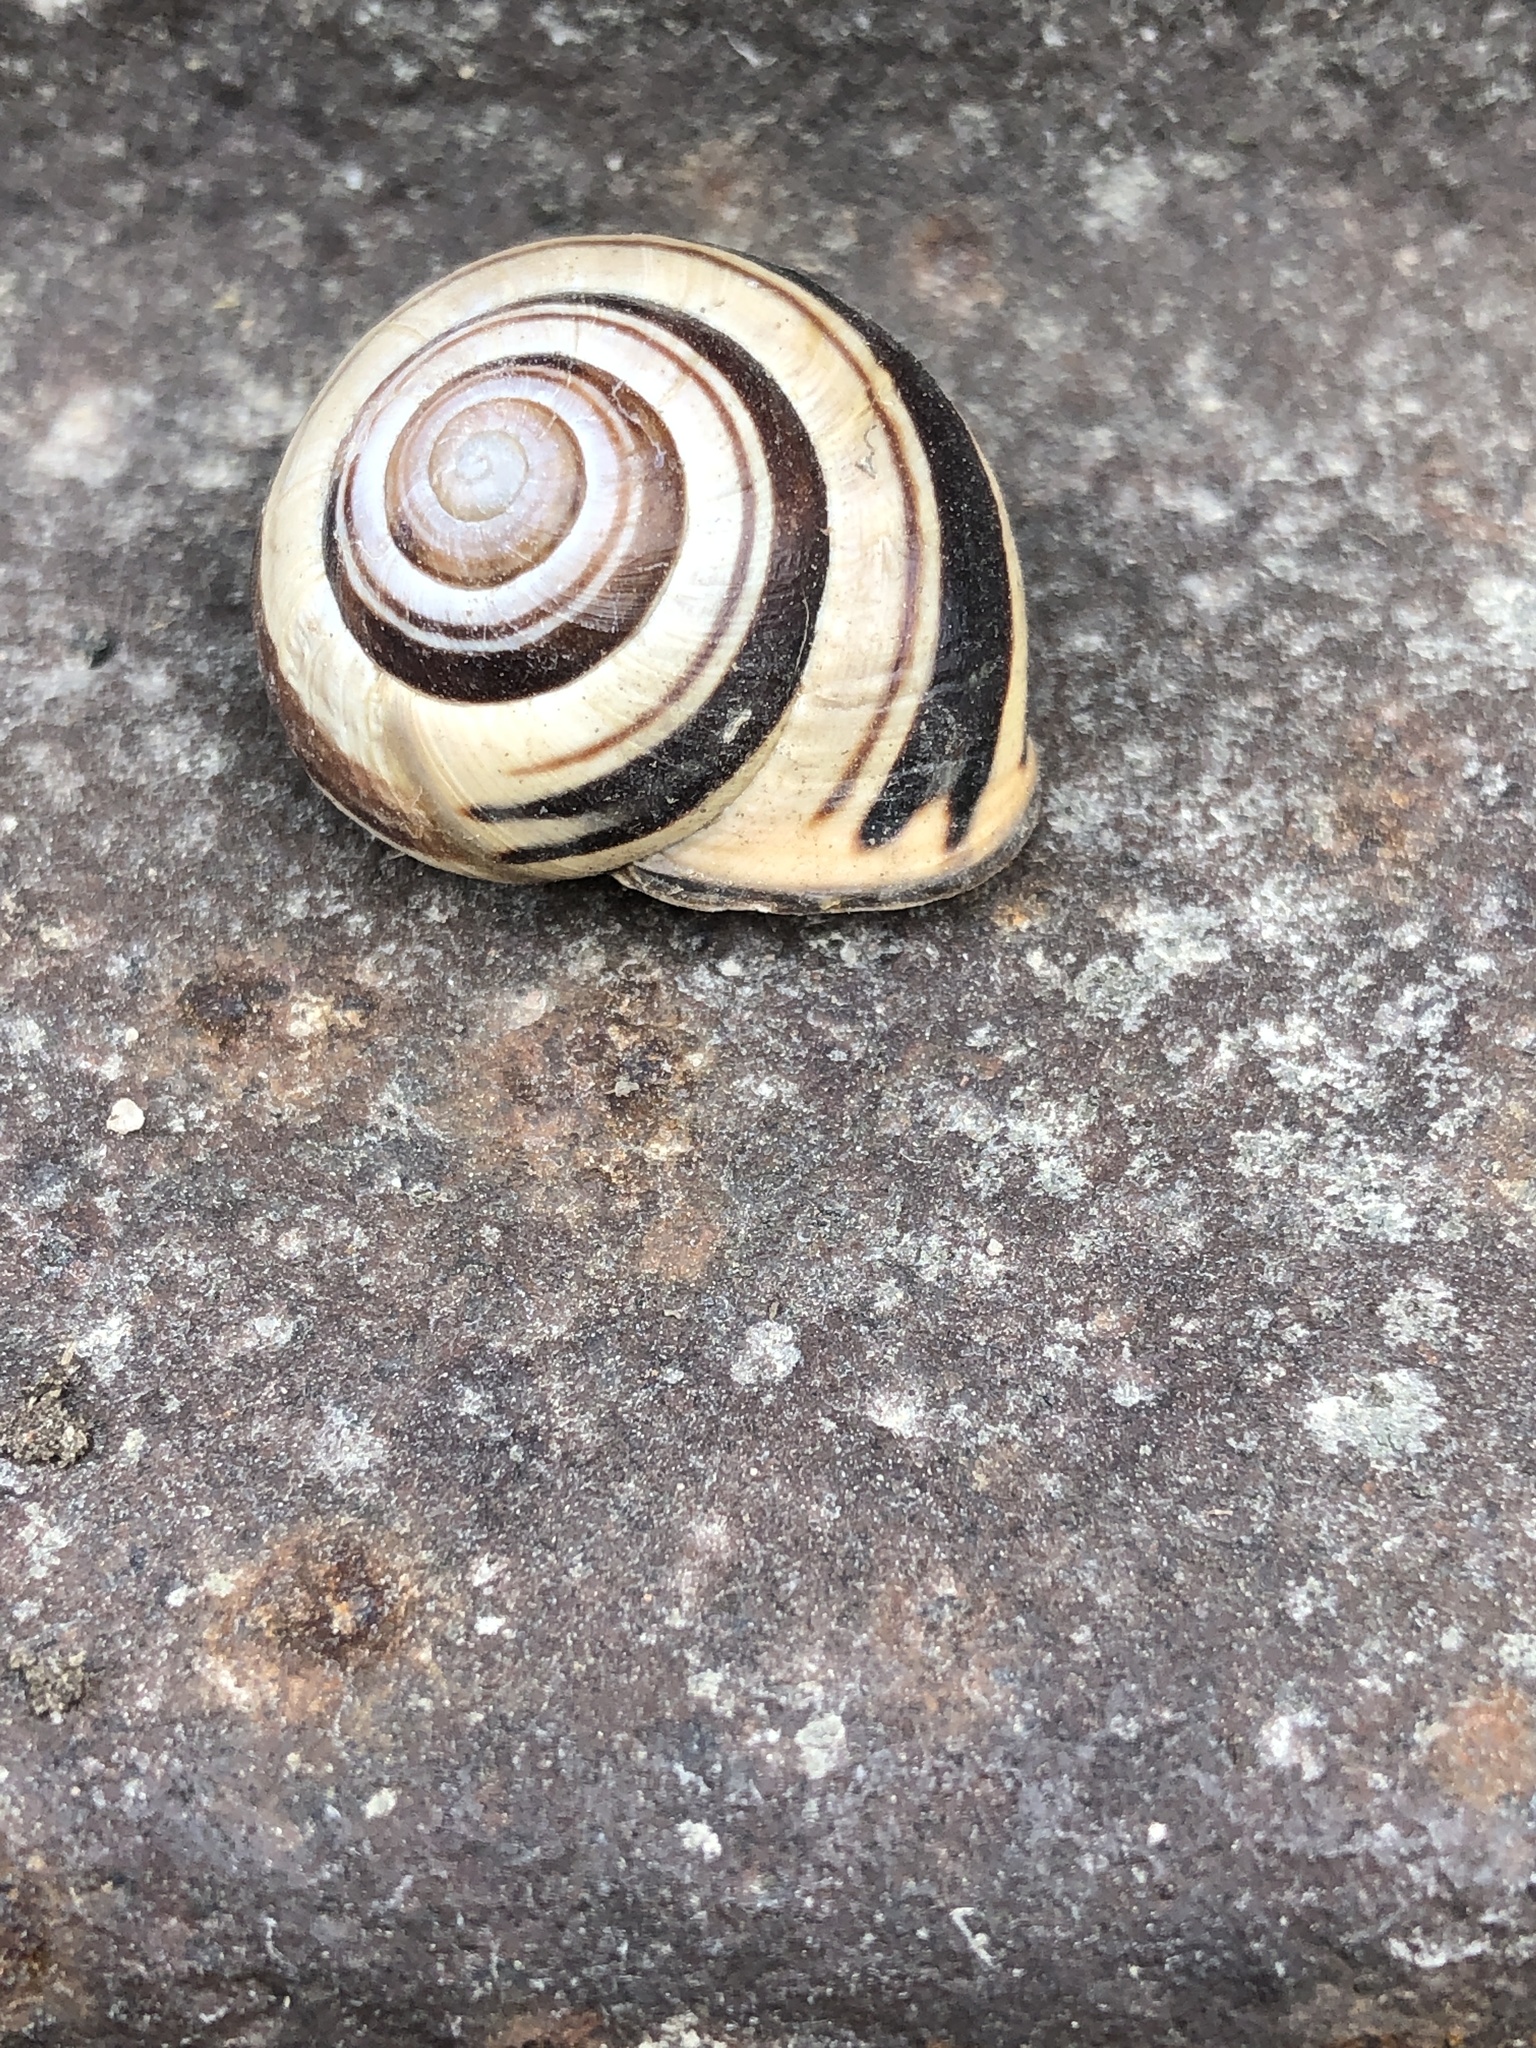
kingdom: Animalia
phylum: Mollusca
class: Gastropoda
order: Stylommatophora
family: Helicidae
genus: Cepaea
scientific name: Cepaea nemoralis
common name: Grovesnail
